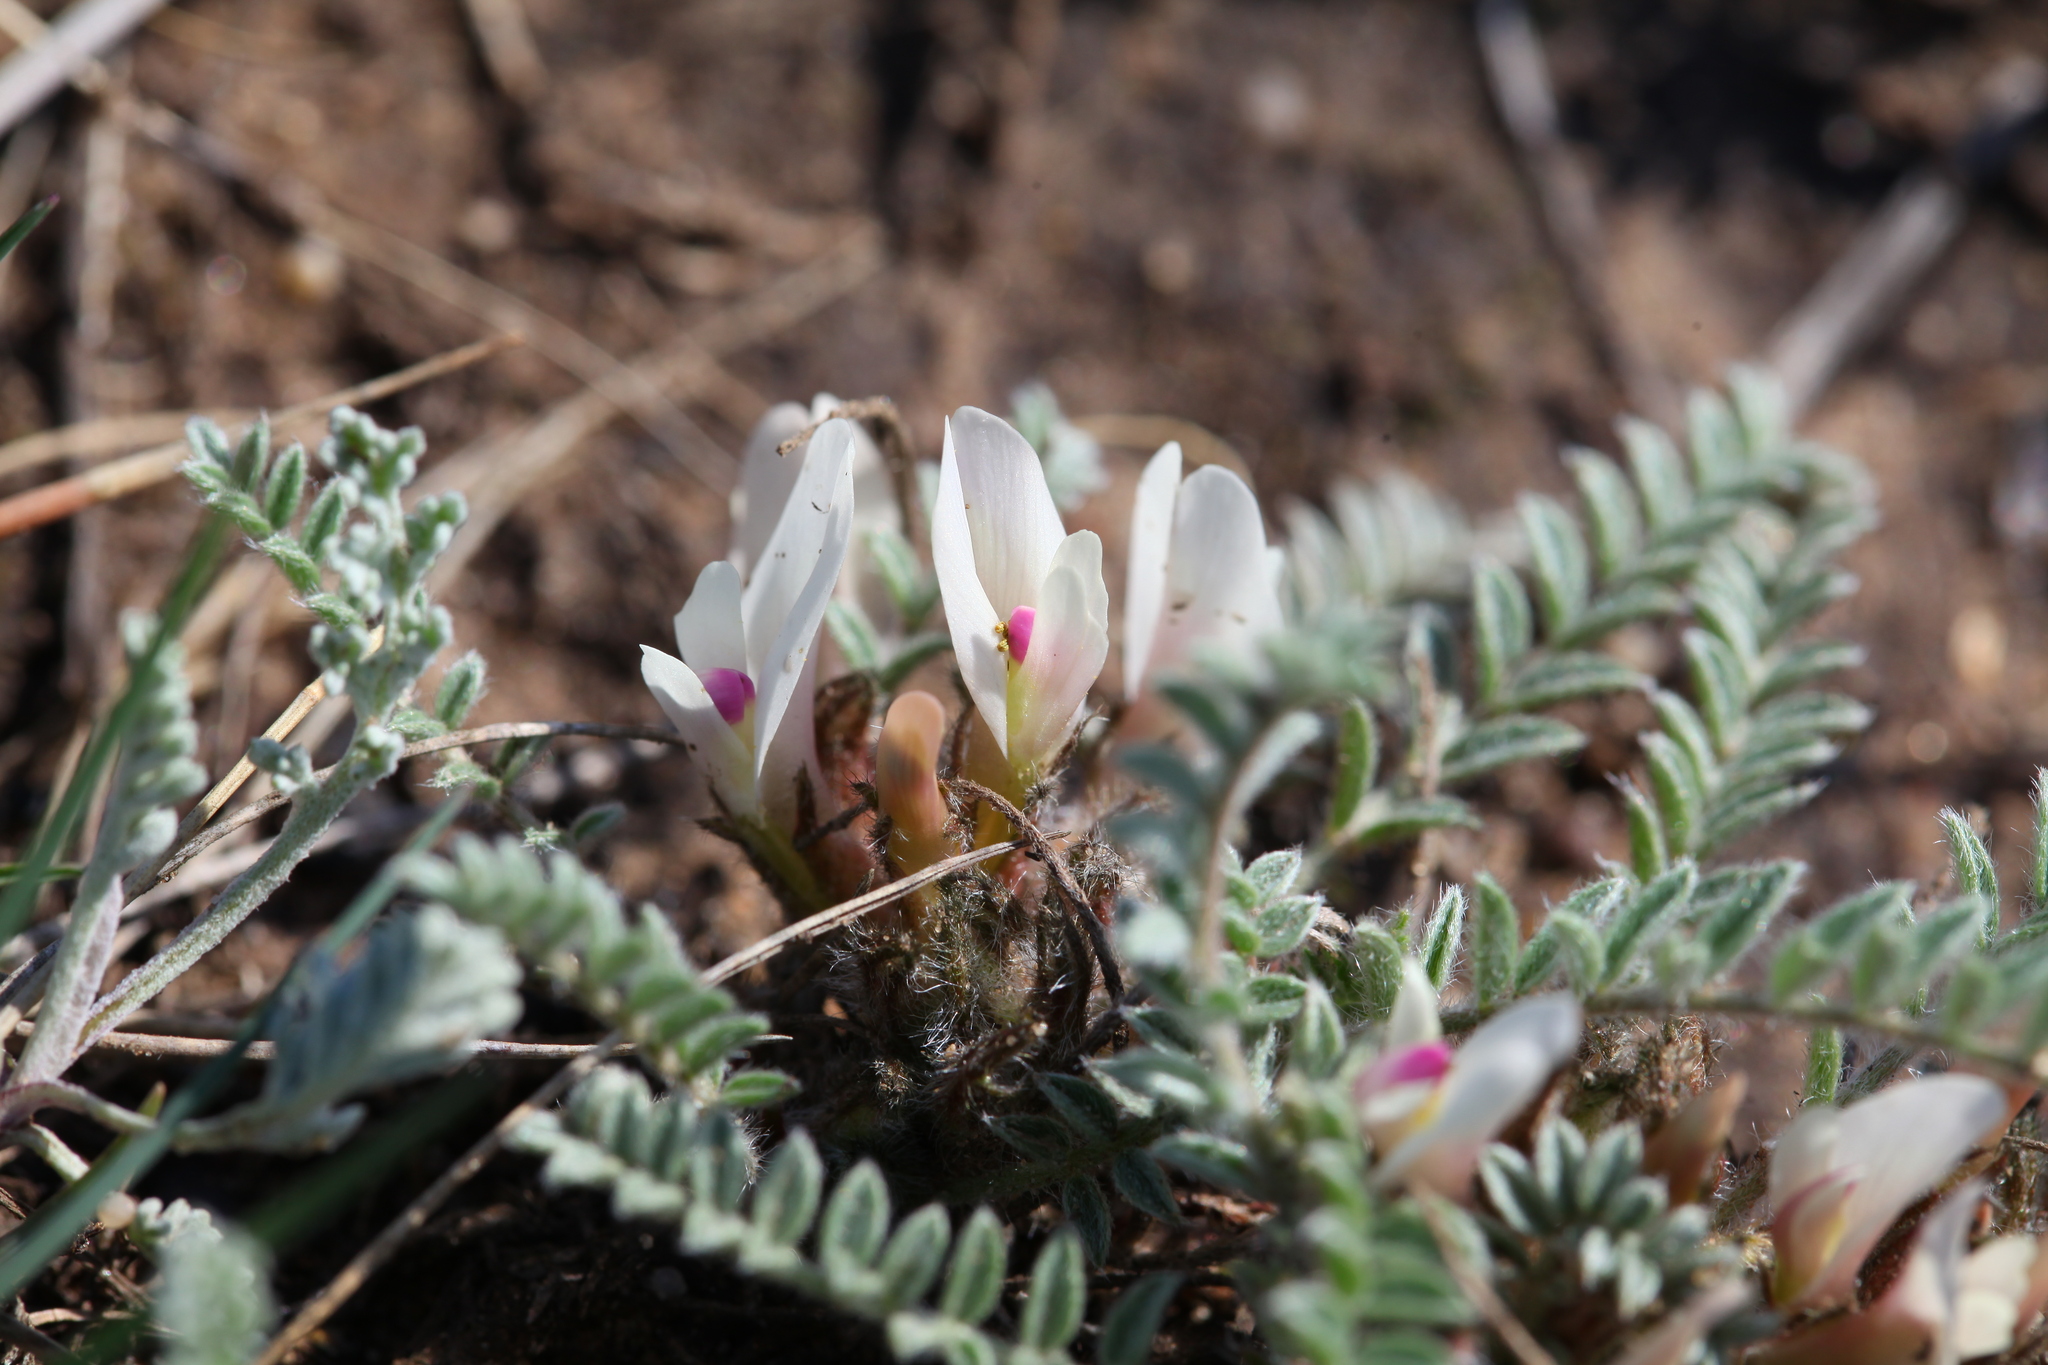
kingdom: Plantae
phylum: Tracheophyta
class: Magnoliopsida
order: Fabales
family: Fabaceae
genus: Astragalus
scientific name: Astragalus testiculatus
